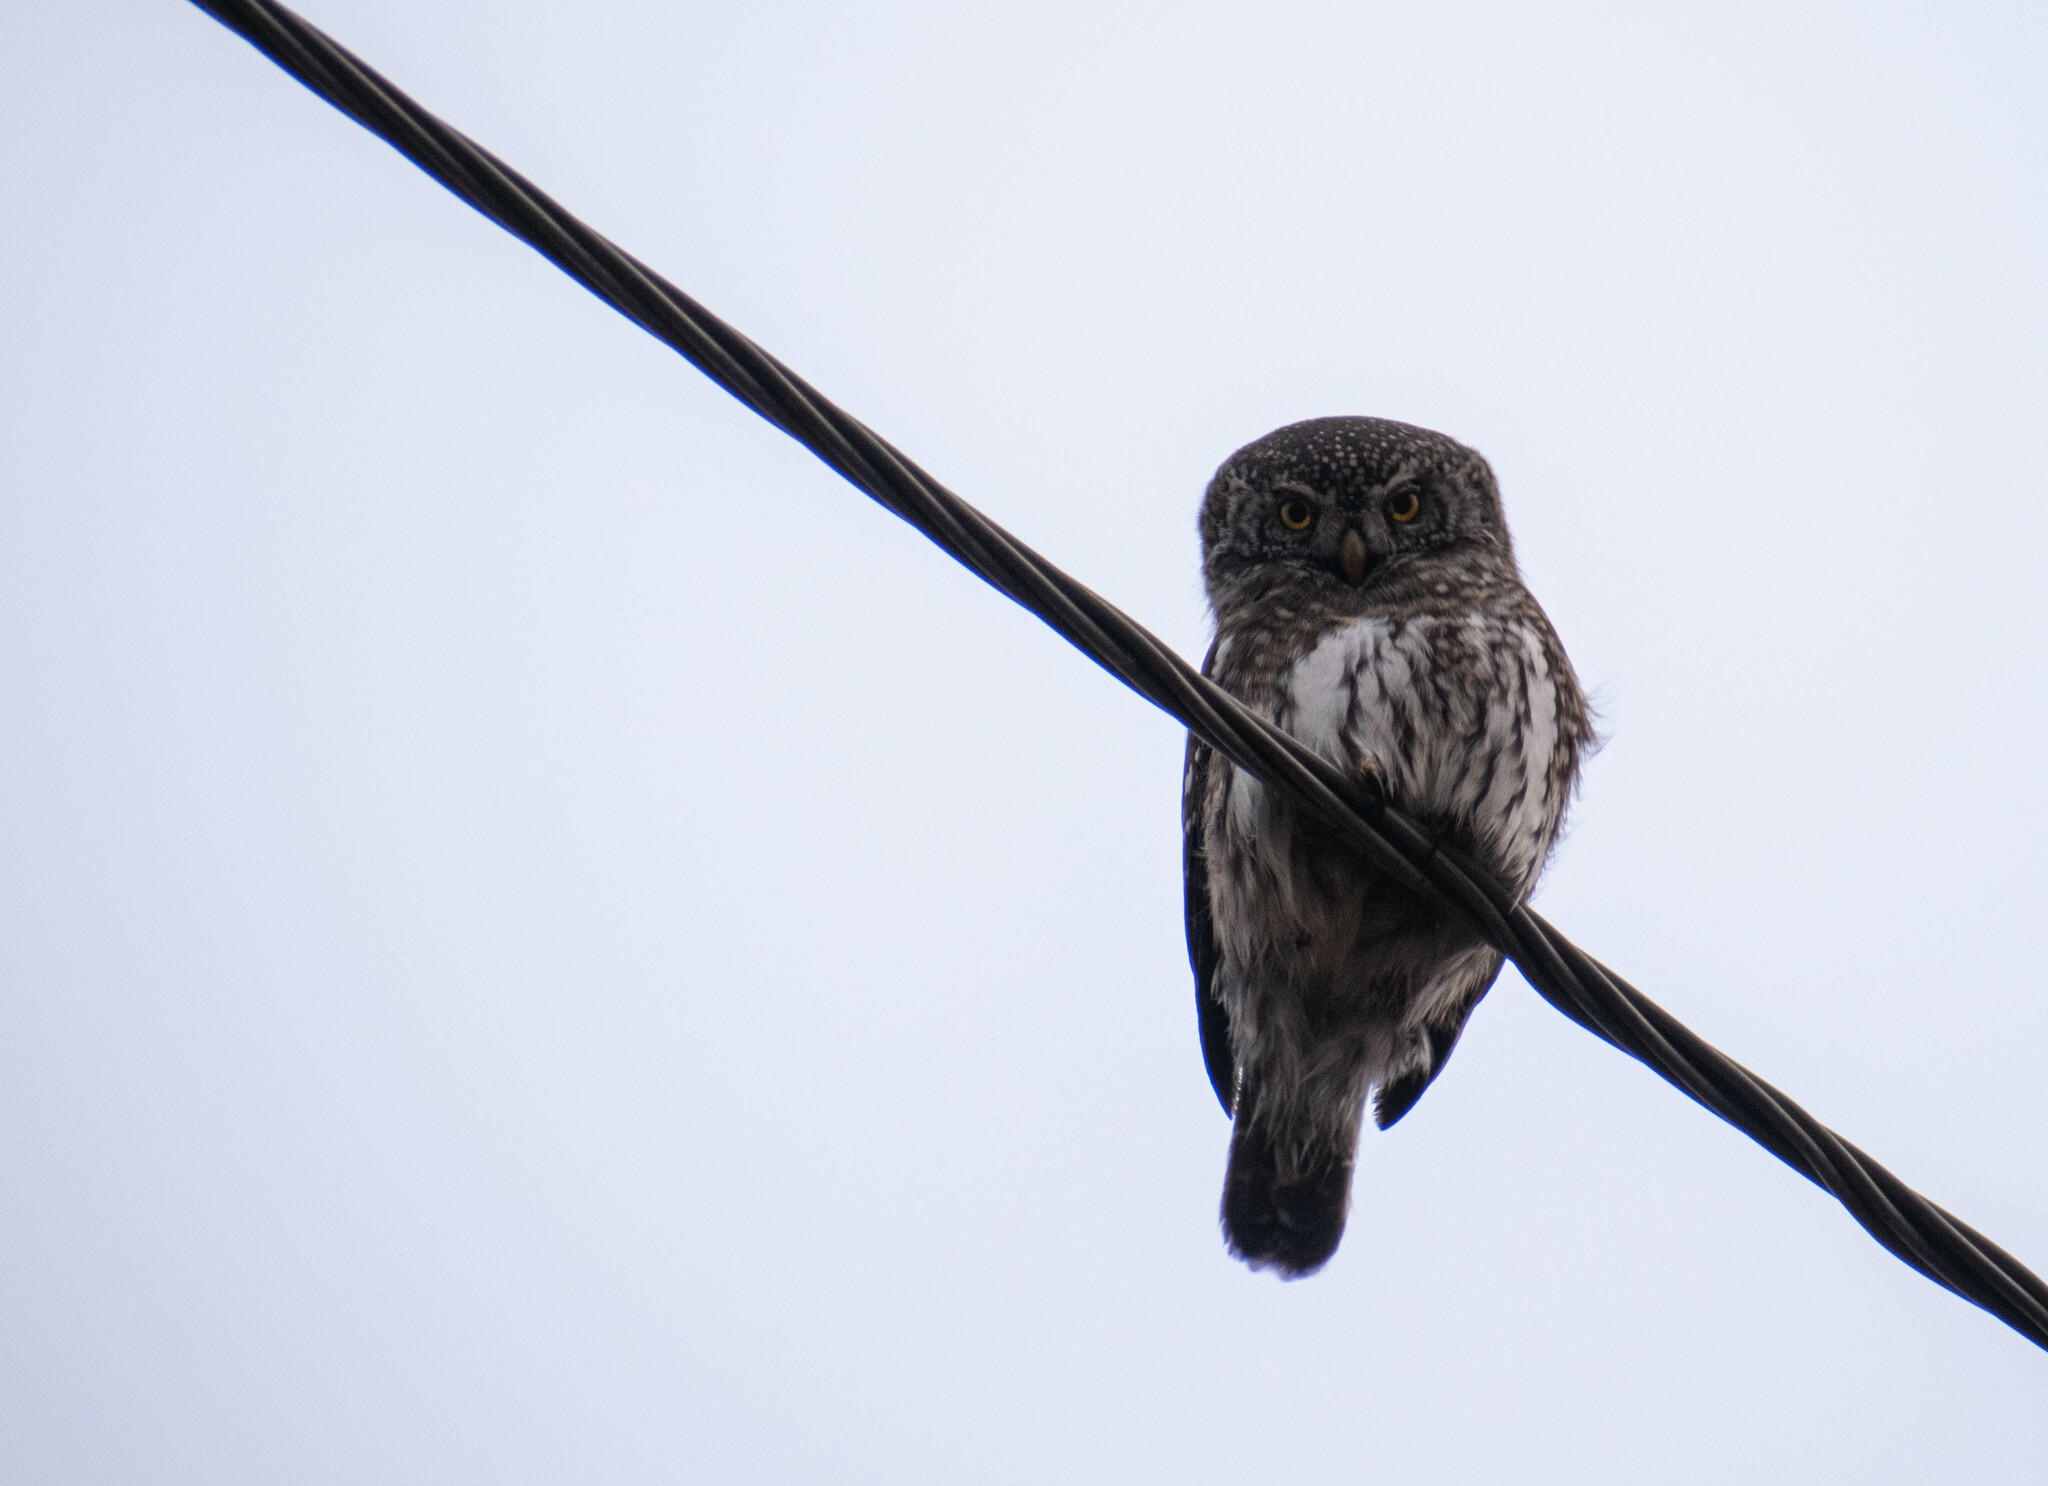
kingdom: Animalia
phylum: Chordata
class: Aves
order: Strigiformes
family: Strigidae
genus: Glaucidium
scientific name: Glaucidium passerinum
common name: Eurasian pygmy owl
